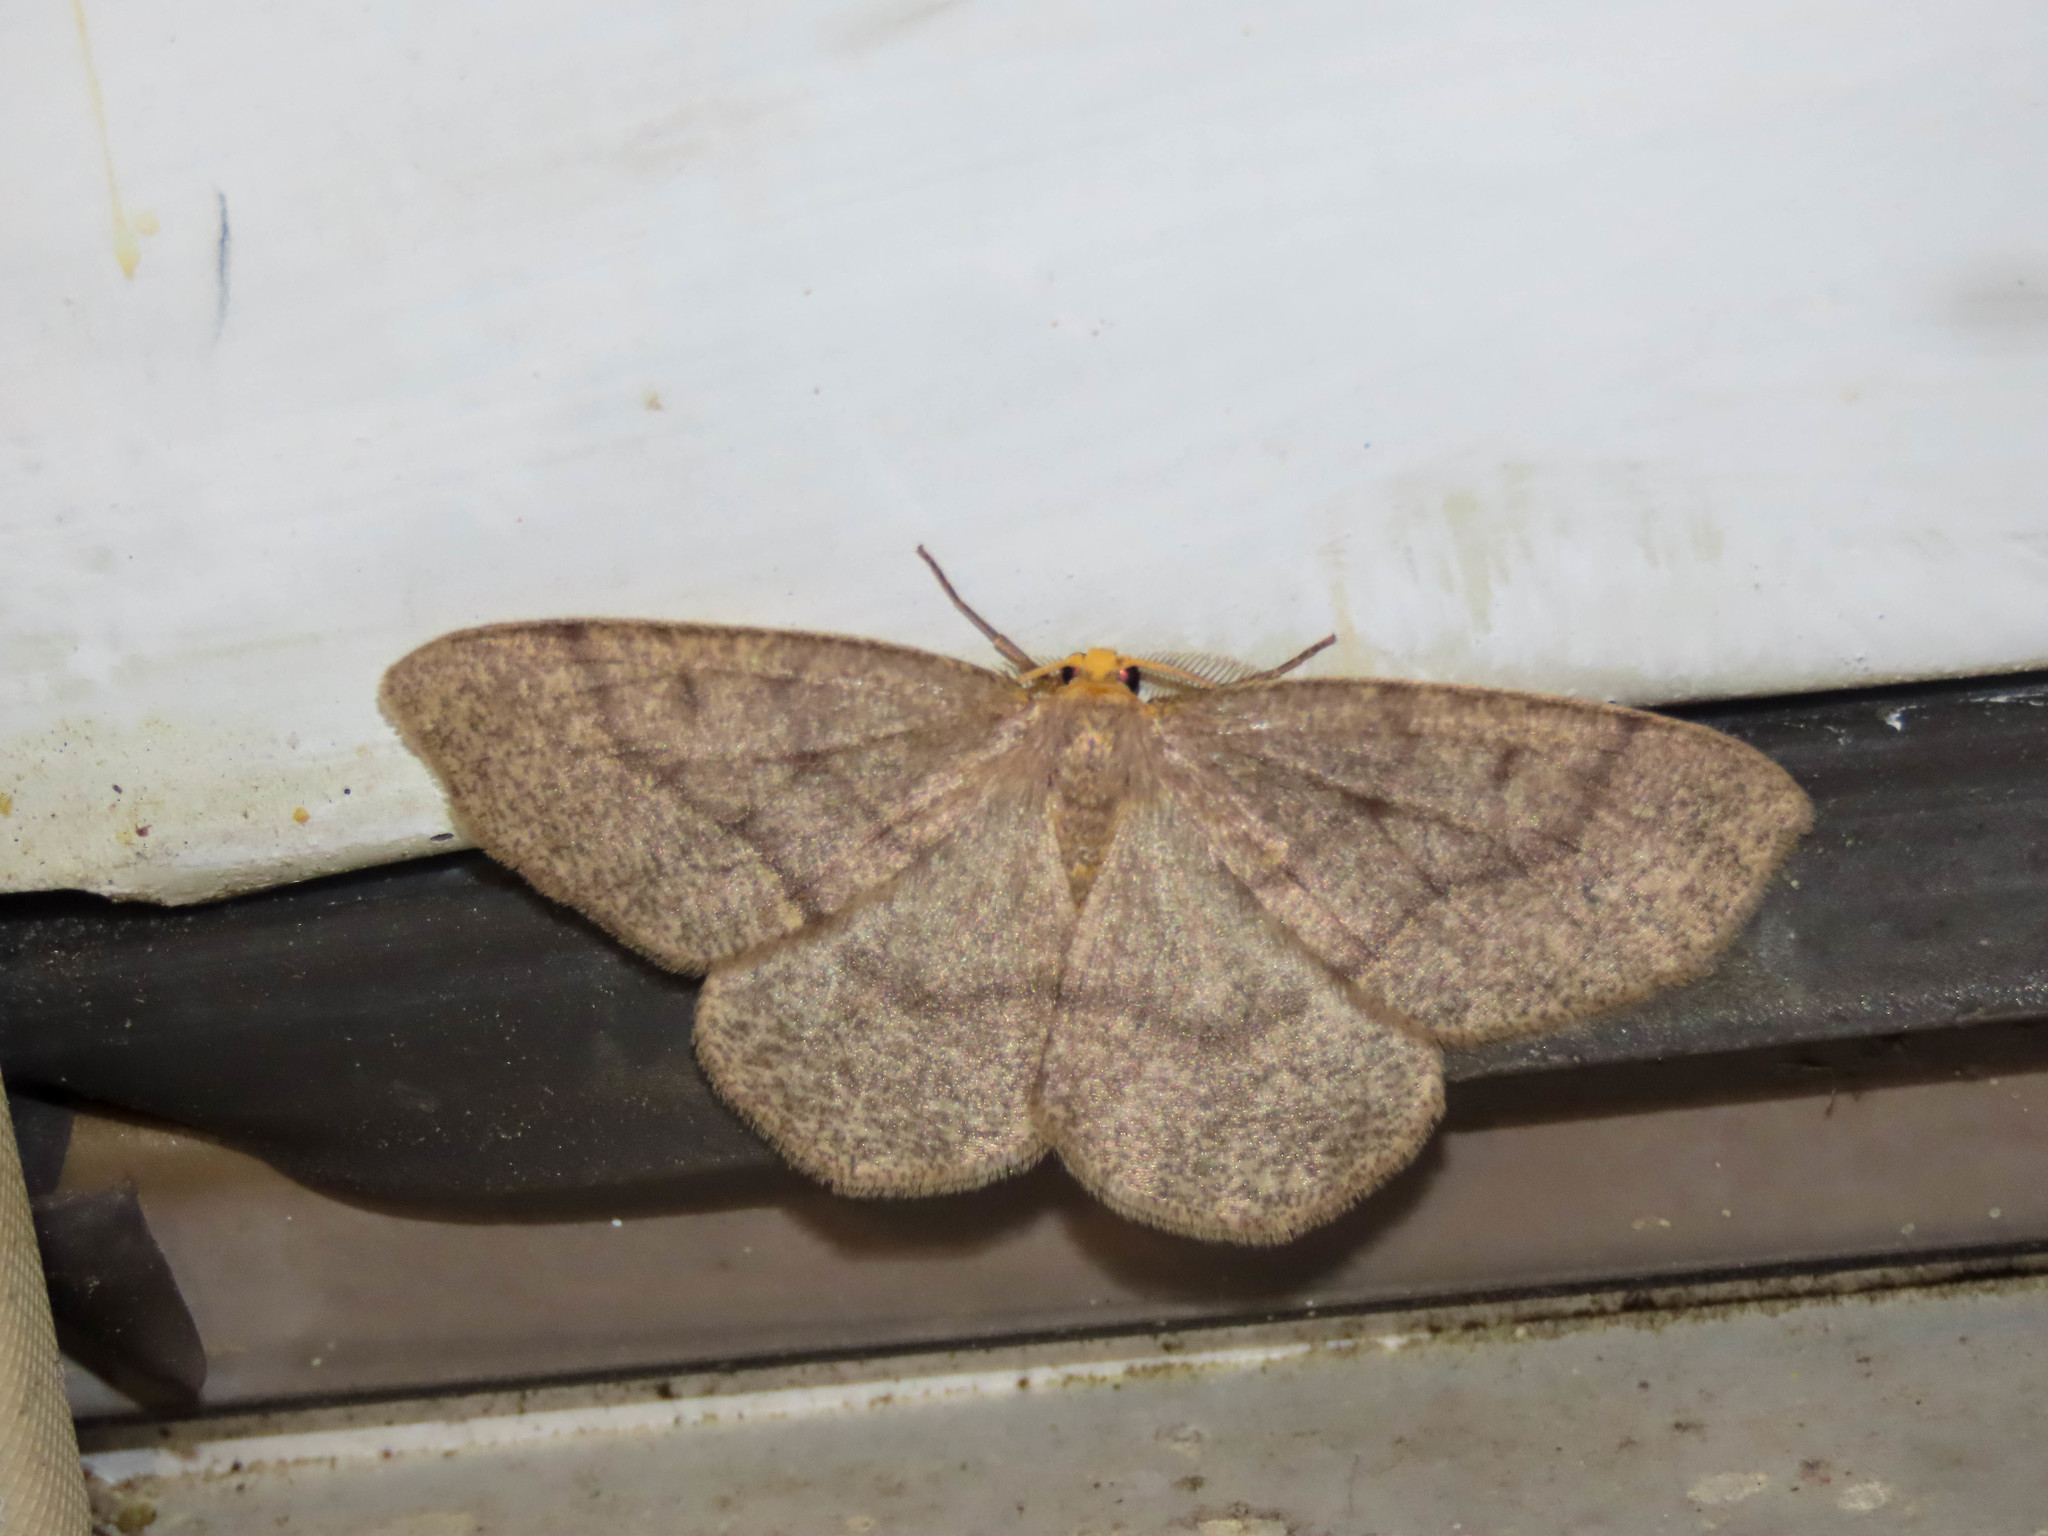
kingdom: Animalia
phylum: Arthropoda
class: Insecta
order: Lepidoptera
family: Geometridae
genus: Lambdina
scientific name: Lambdina fervidaria
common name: Curve-lined looper moth
